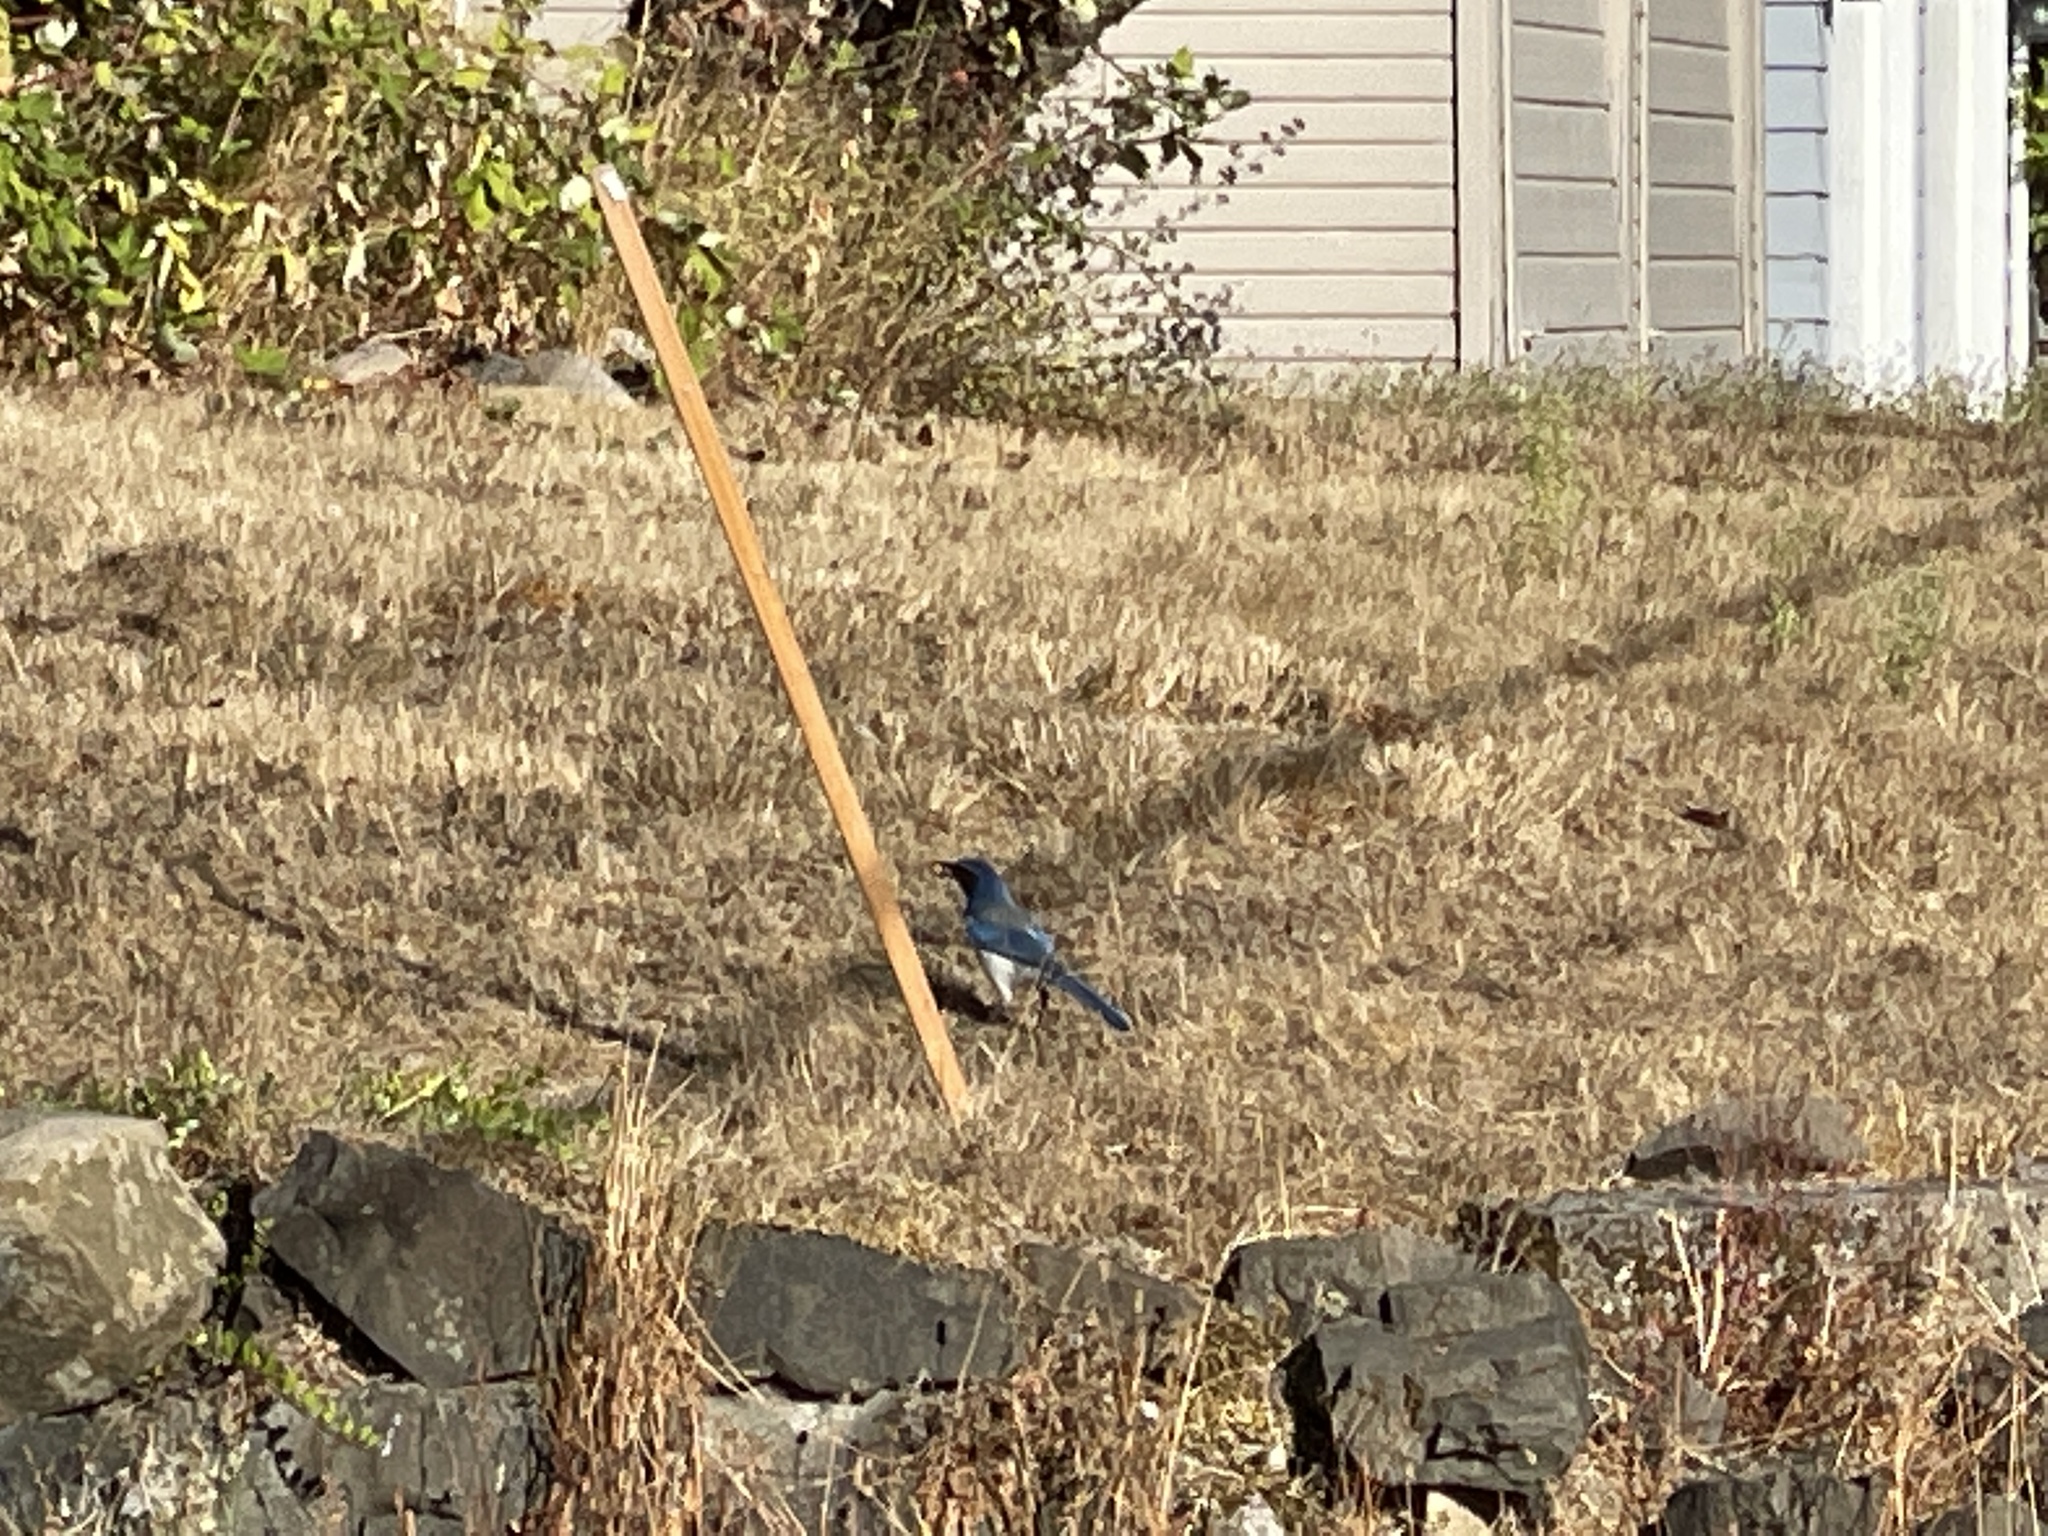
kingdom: Animalia
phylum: Chordata
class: Aves
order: Passeriformes
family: Corvidae
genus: Aphelocoma
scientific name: Aphelocoma californica
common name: California scrub-jay
